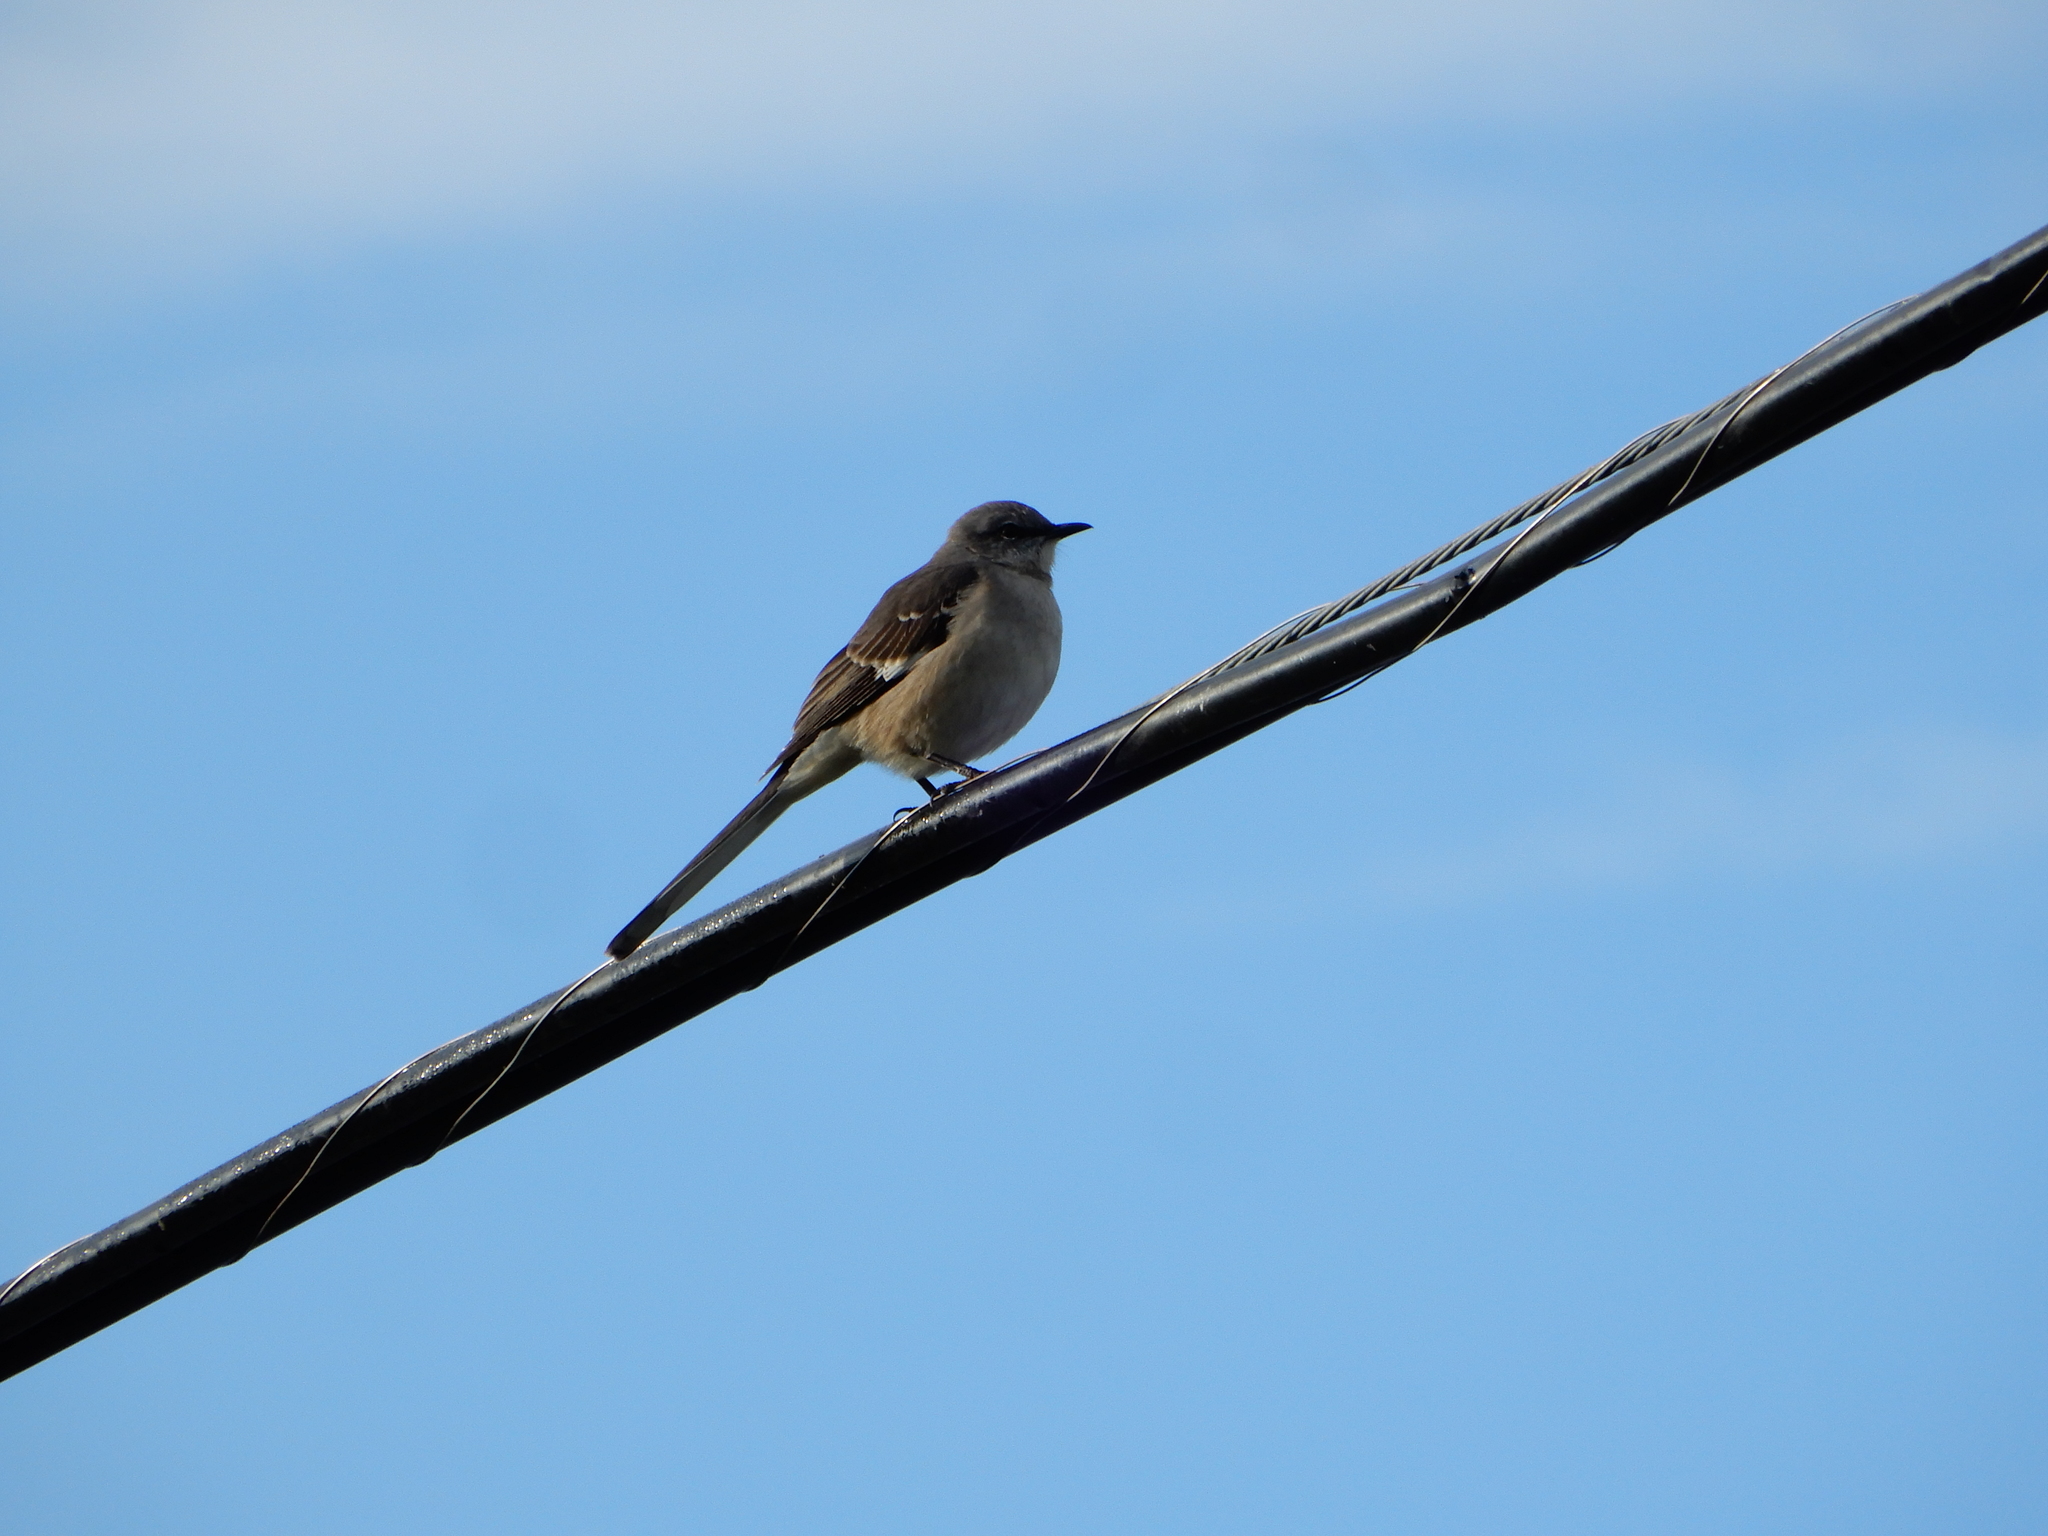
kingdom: Animalia
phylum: Chordata
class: Aves
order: Passeriformes
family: Mimidae
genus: Mimus
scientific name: Mimus polyglottos
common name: Northern mockingbird
